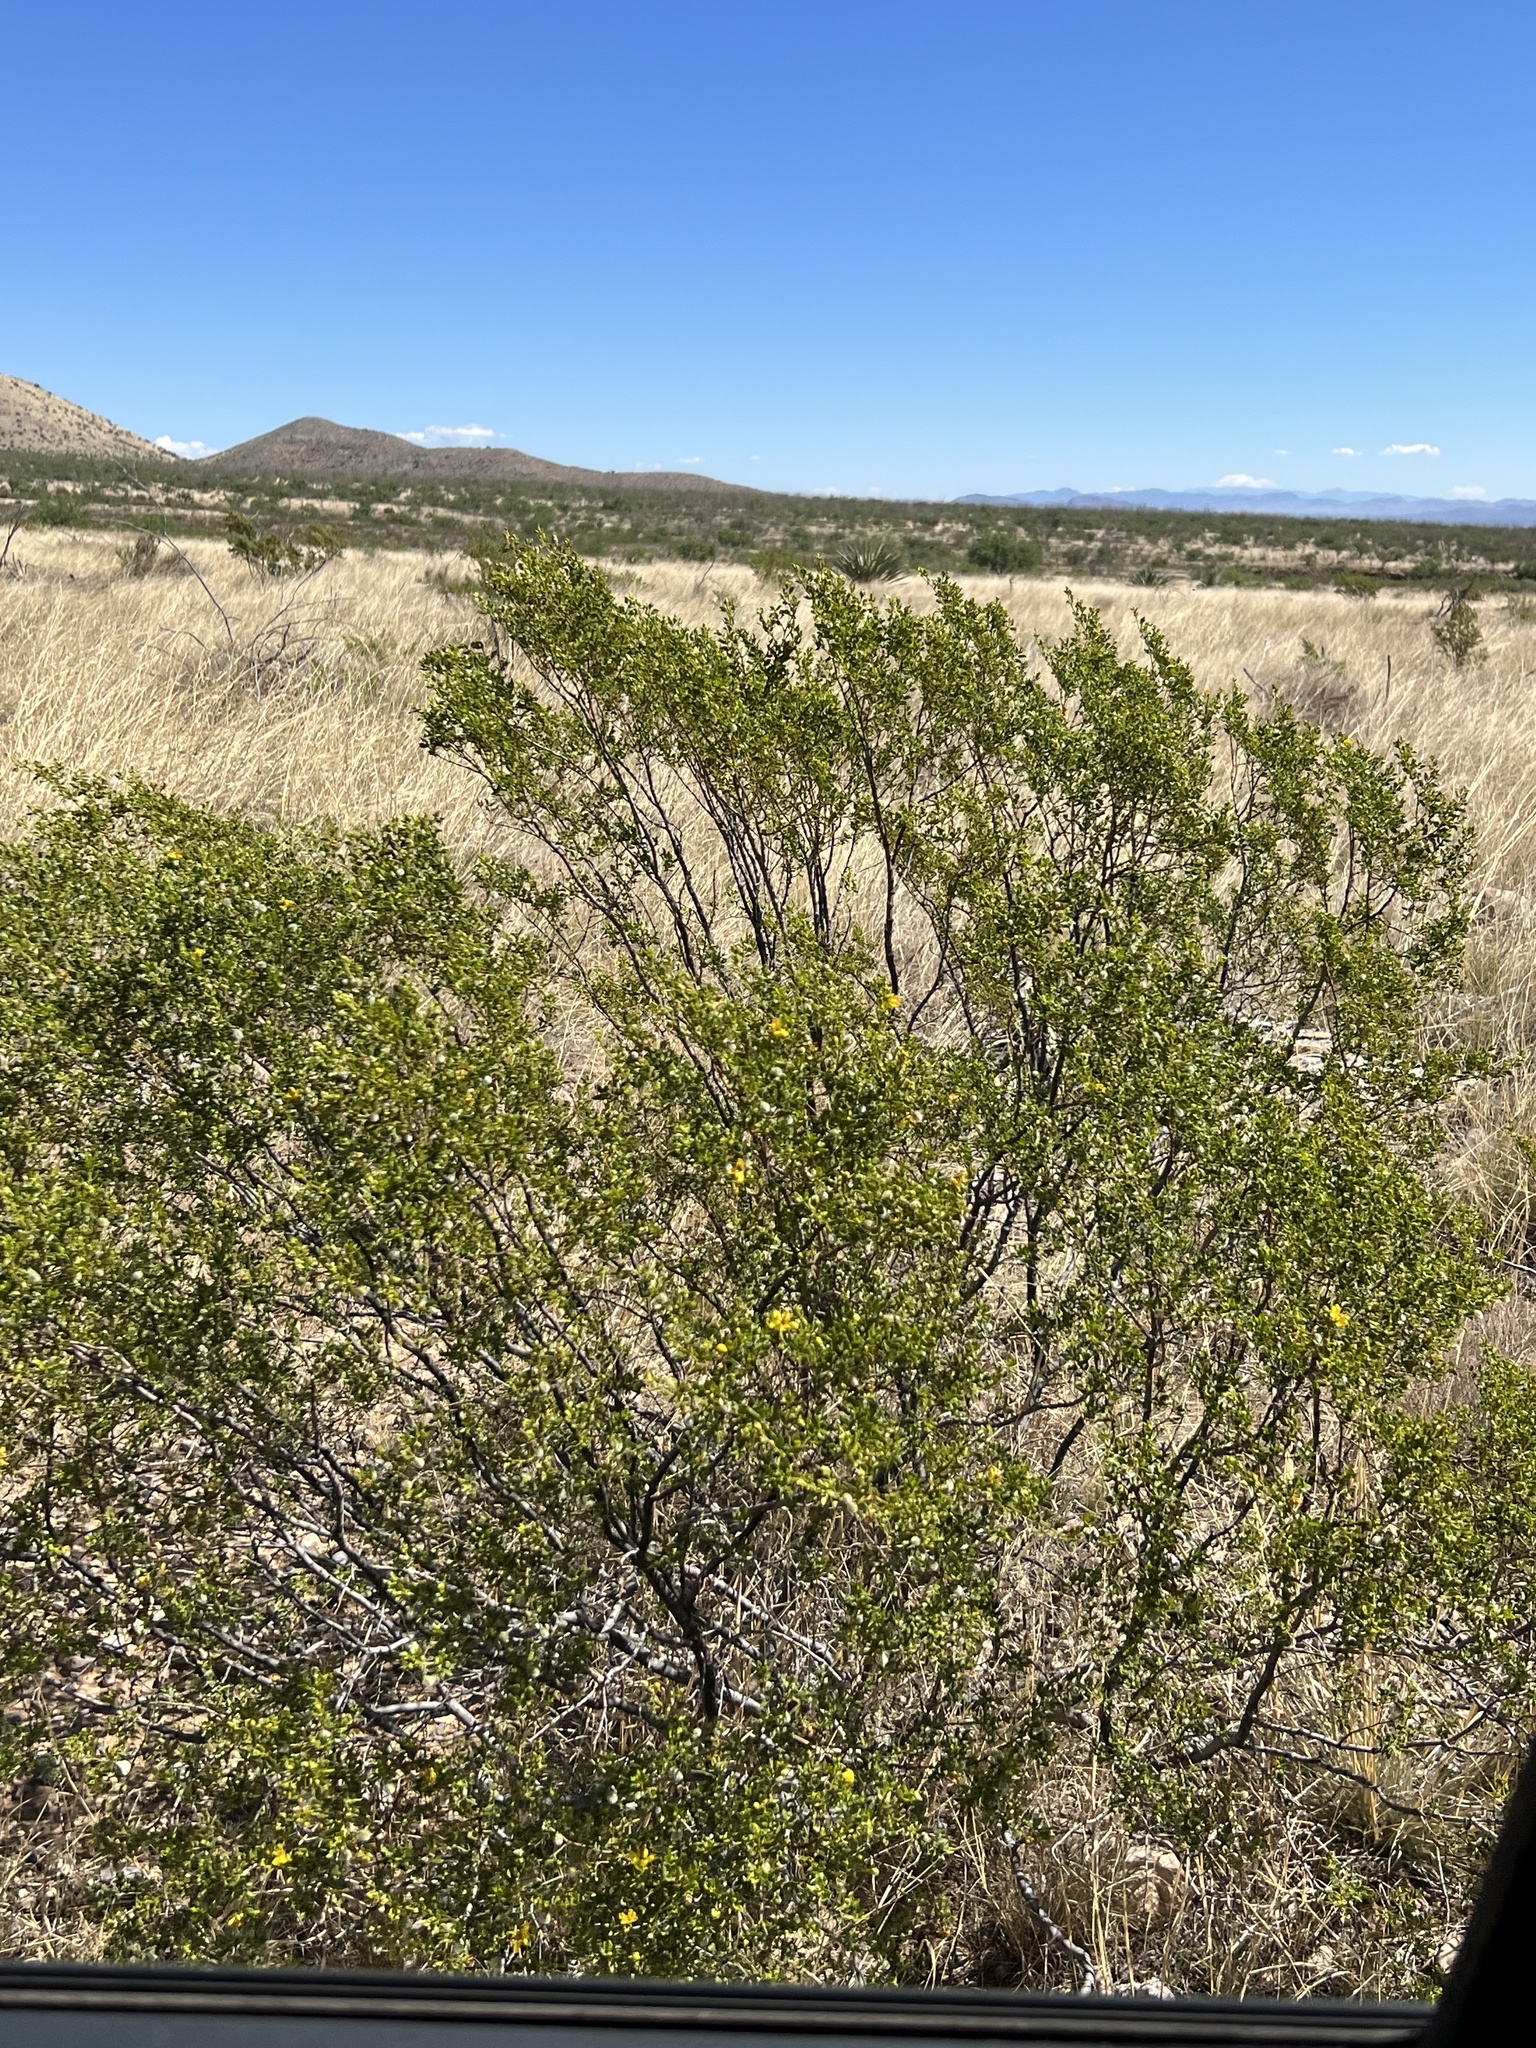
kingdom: Plantae
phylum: Tracheophyta
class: Magnoliopsida
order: Zygophyllales
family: Zygophyllaceae
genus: Larrea
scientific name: Larrea tridentata
